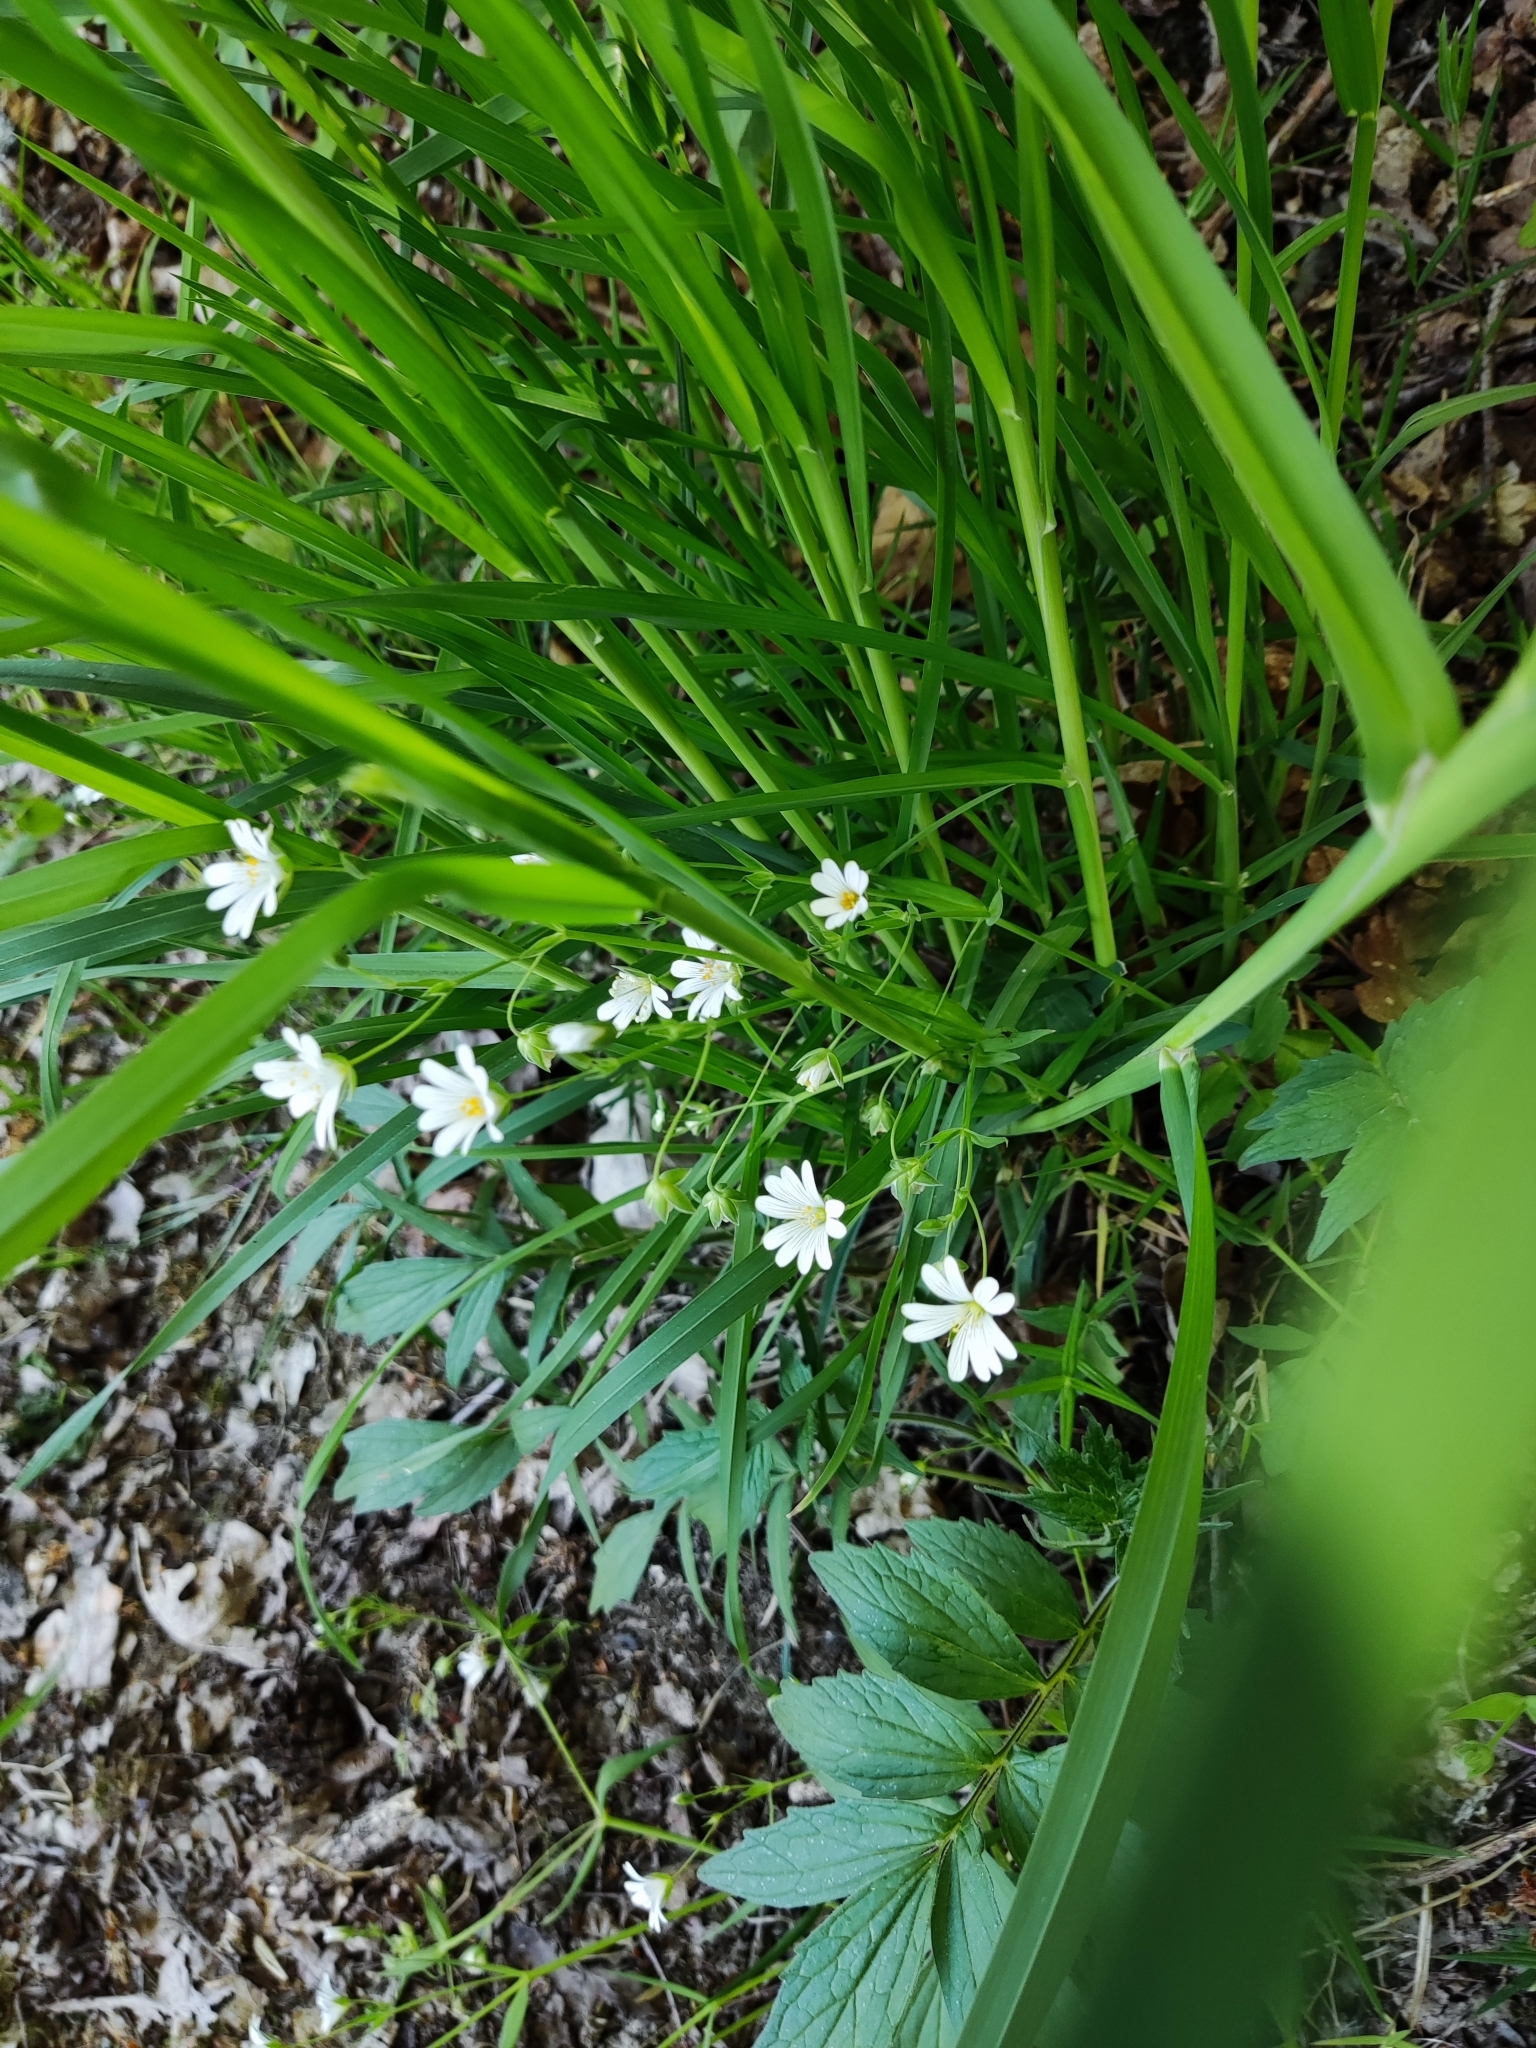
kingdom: Plantae
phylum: Tracheophyta
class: Magnoliopsida
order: Caryophyllales
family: Caryophyllaceae
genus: Rabelera
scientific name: Rabelera holostea
